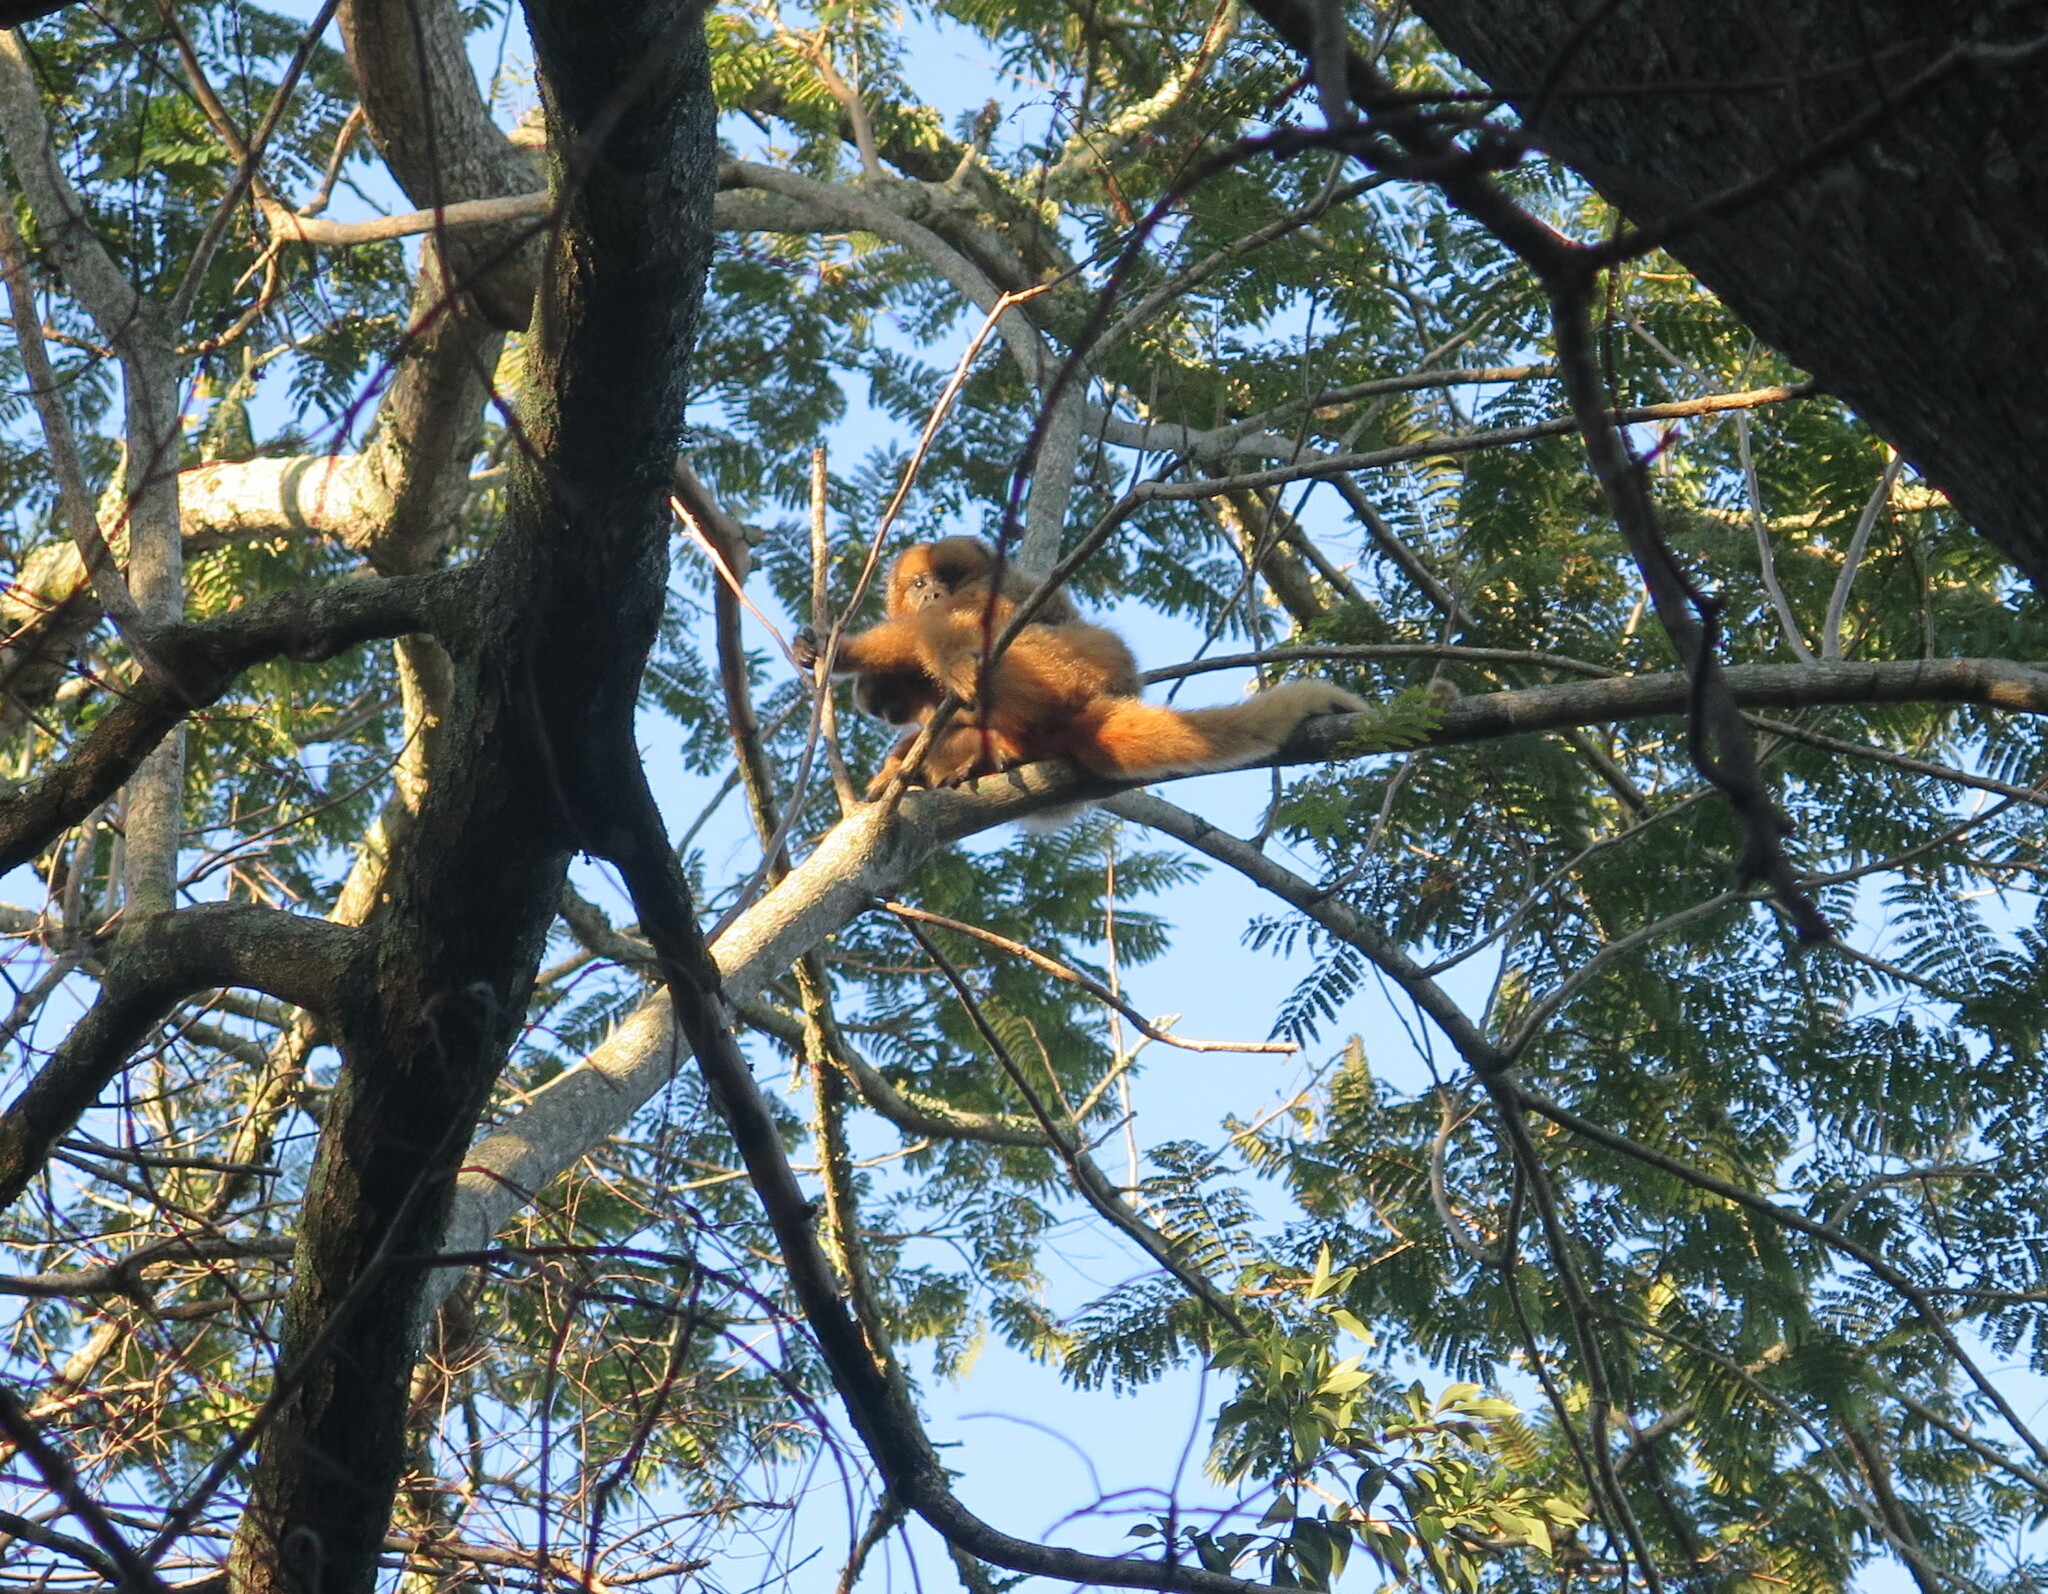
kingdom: Animalia
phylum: Chordata
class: Mammalia
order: Primates
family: Atelidae
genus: Alouatta
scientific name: Alouatta caraya
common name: Black howler
